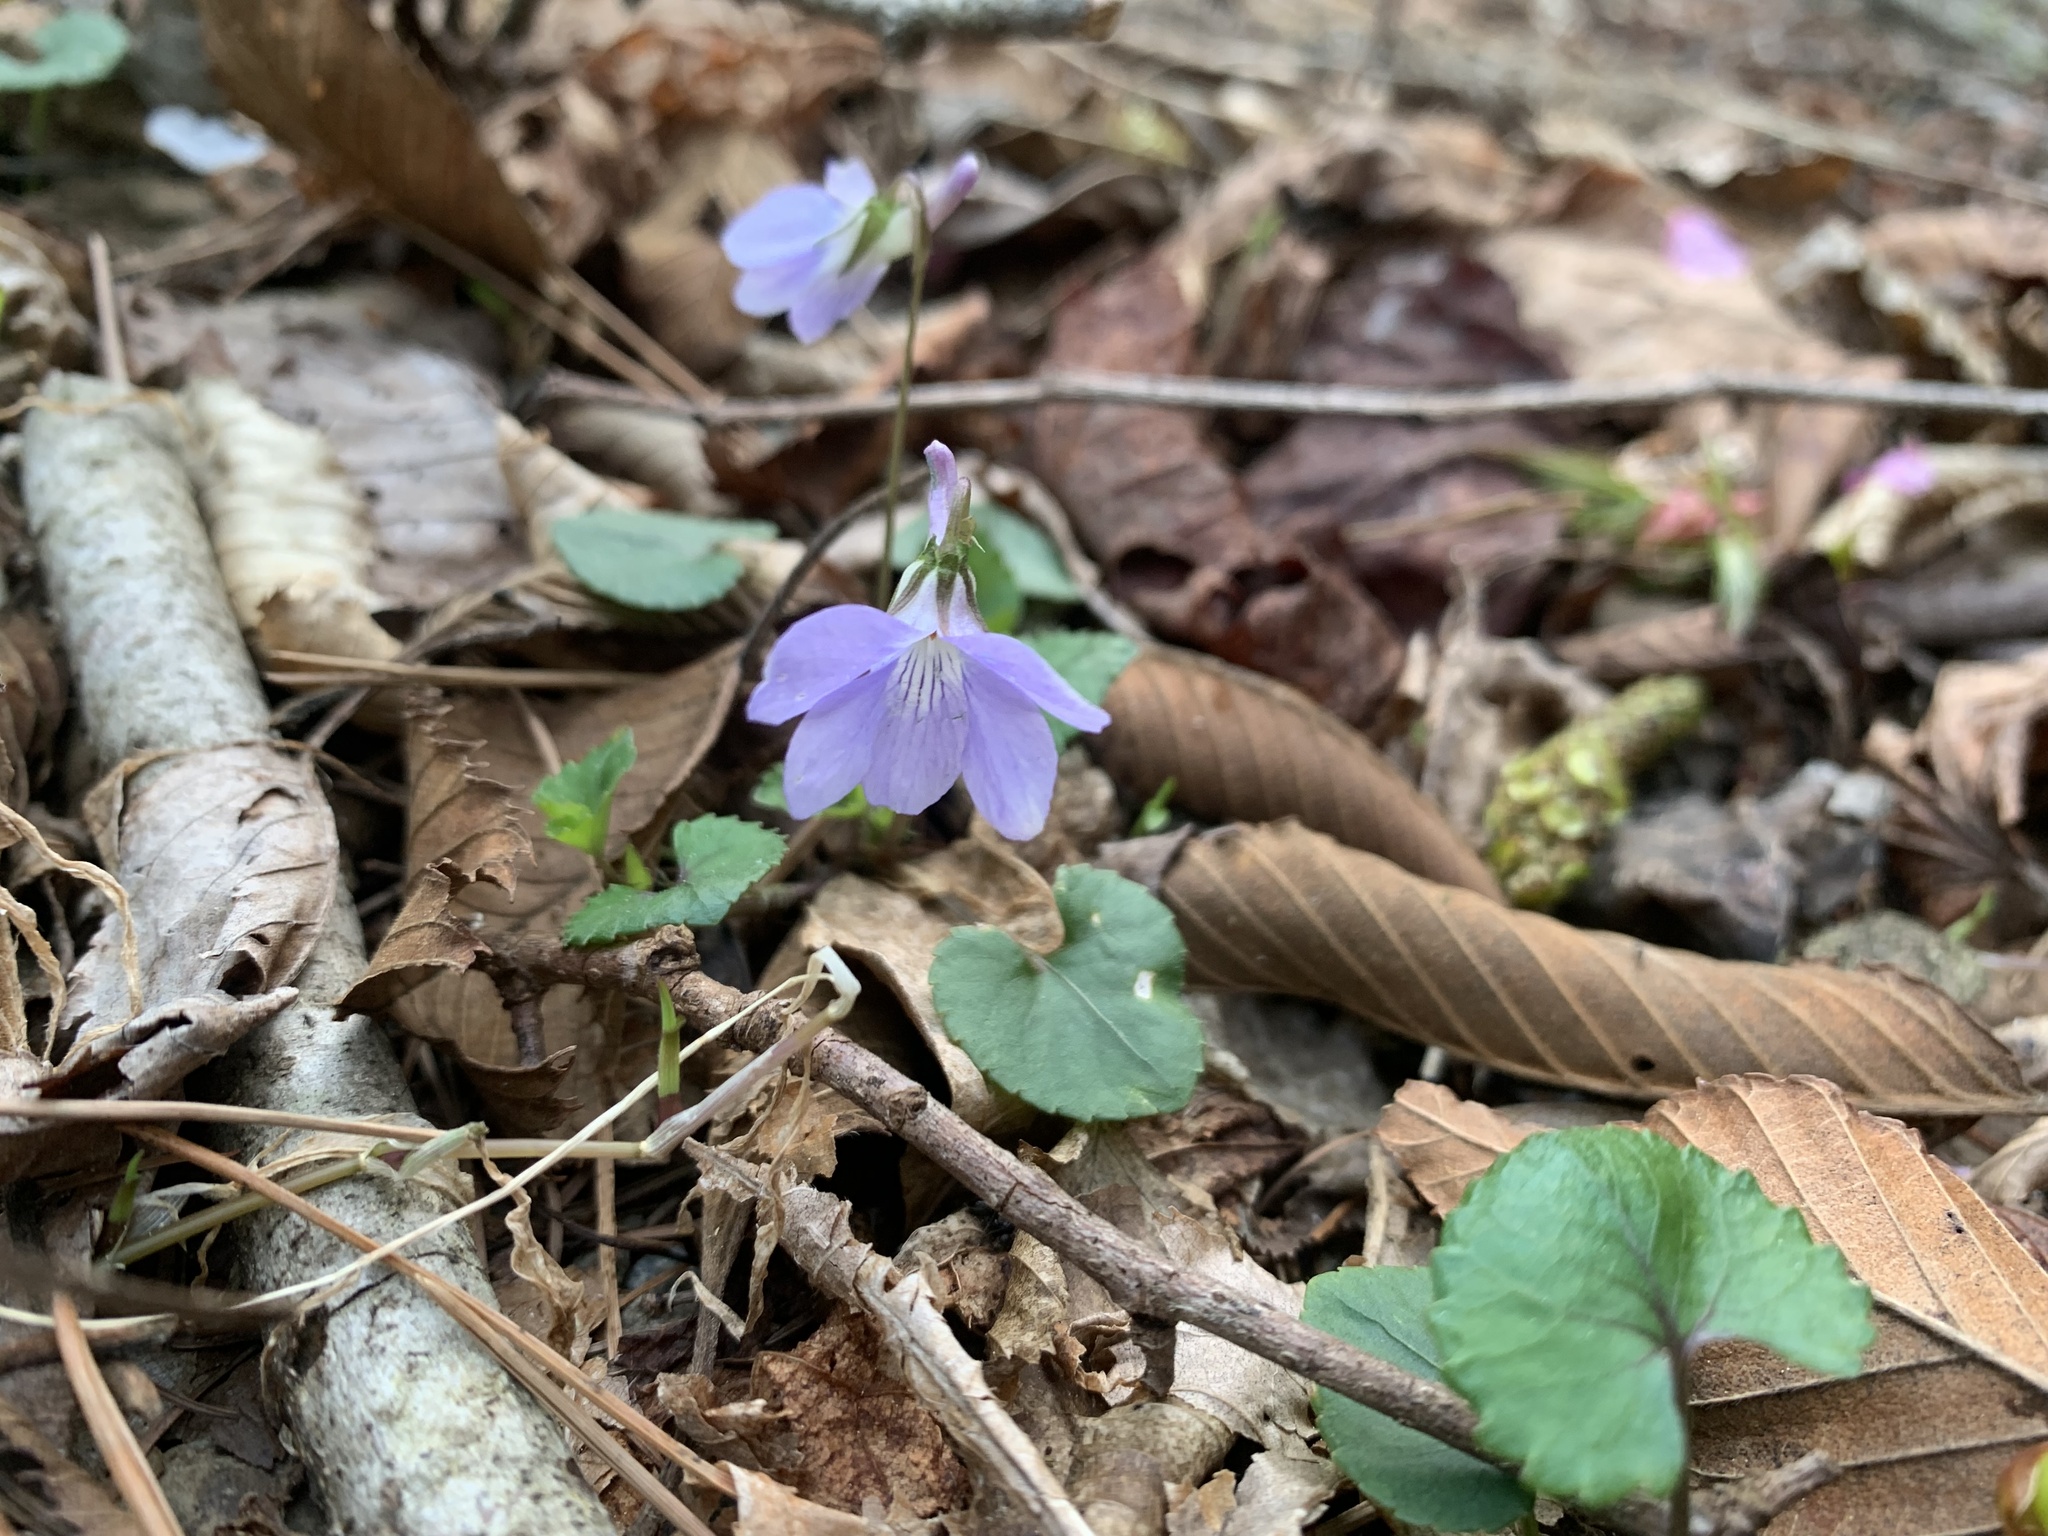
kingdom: Plantae
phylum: Tracheophyta
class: Magnoliopsida
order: Malpighiales
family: Violaceae
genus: Viola
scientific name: Viola grypoceras
